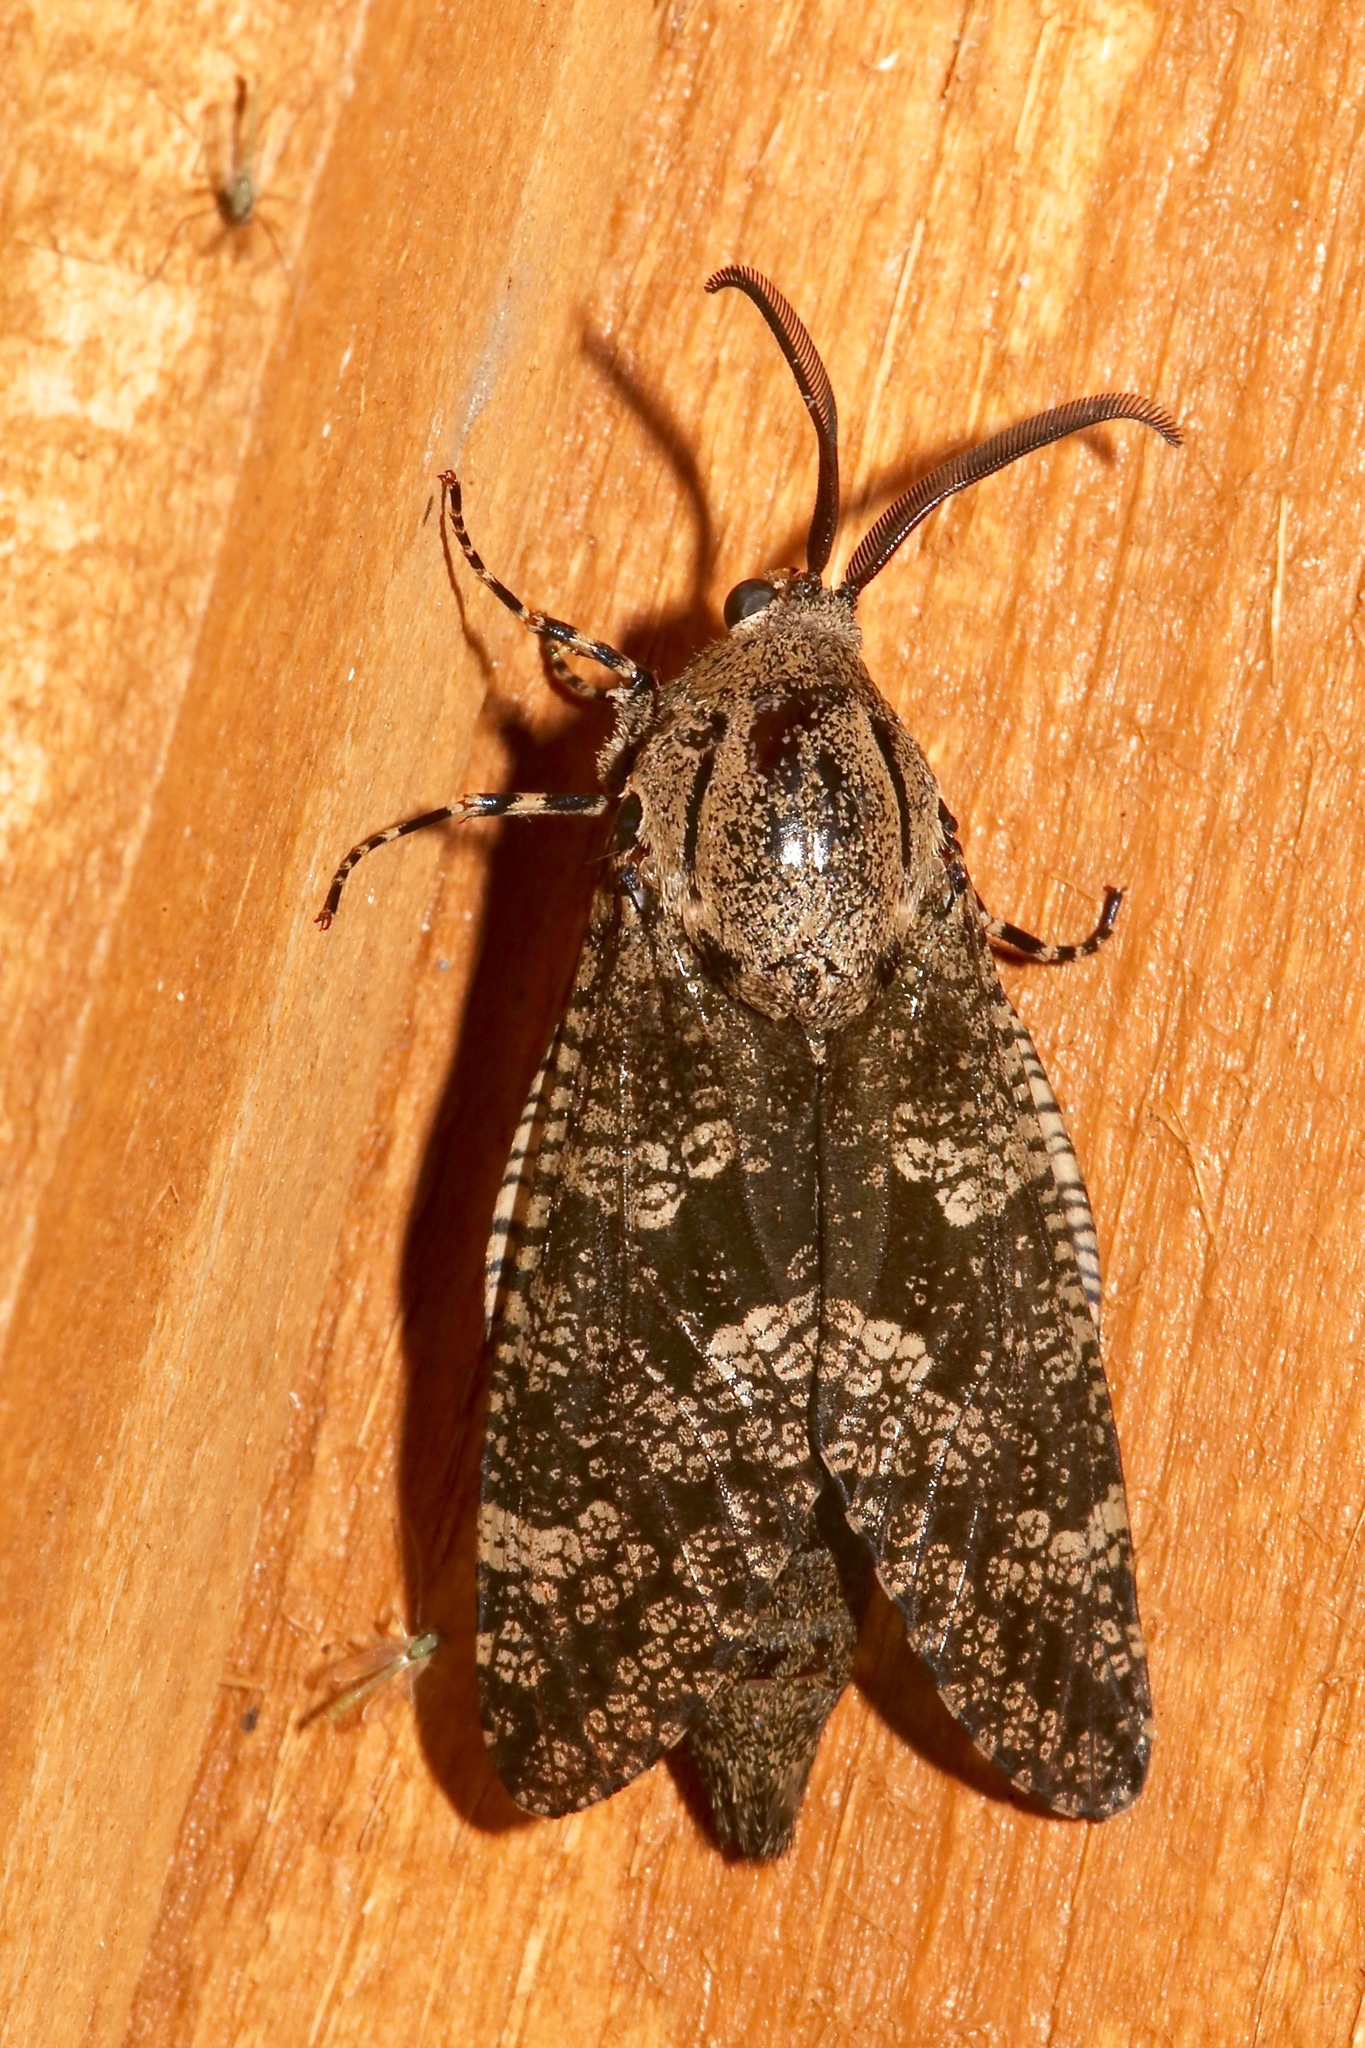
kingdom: Animalia
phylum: Arthropoda
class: Insecta
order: Lepidoptera
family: Cossidae
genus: Prionoxystus
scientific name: Prionoxystus robiniae
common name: Carpenterworm
